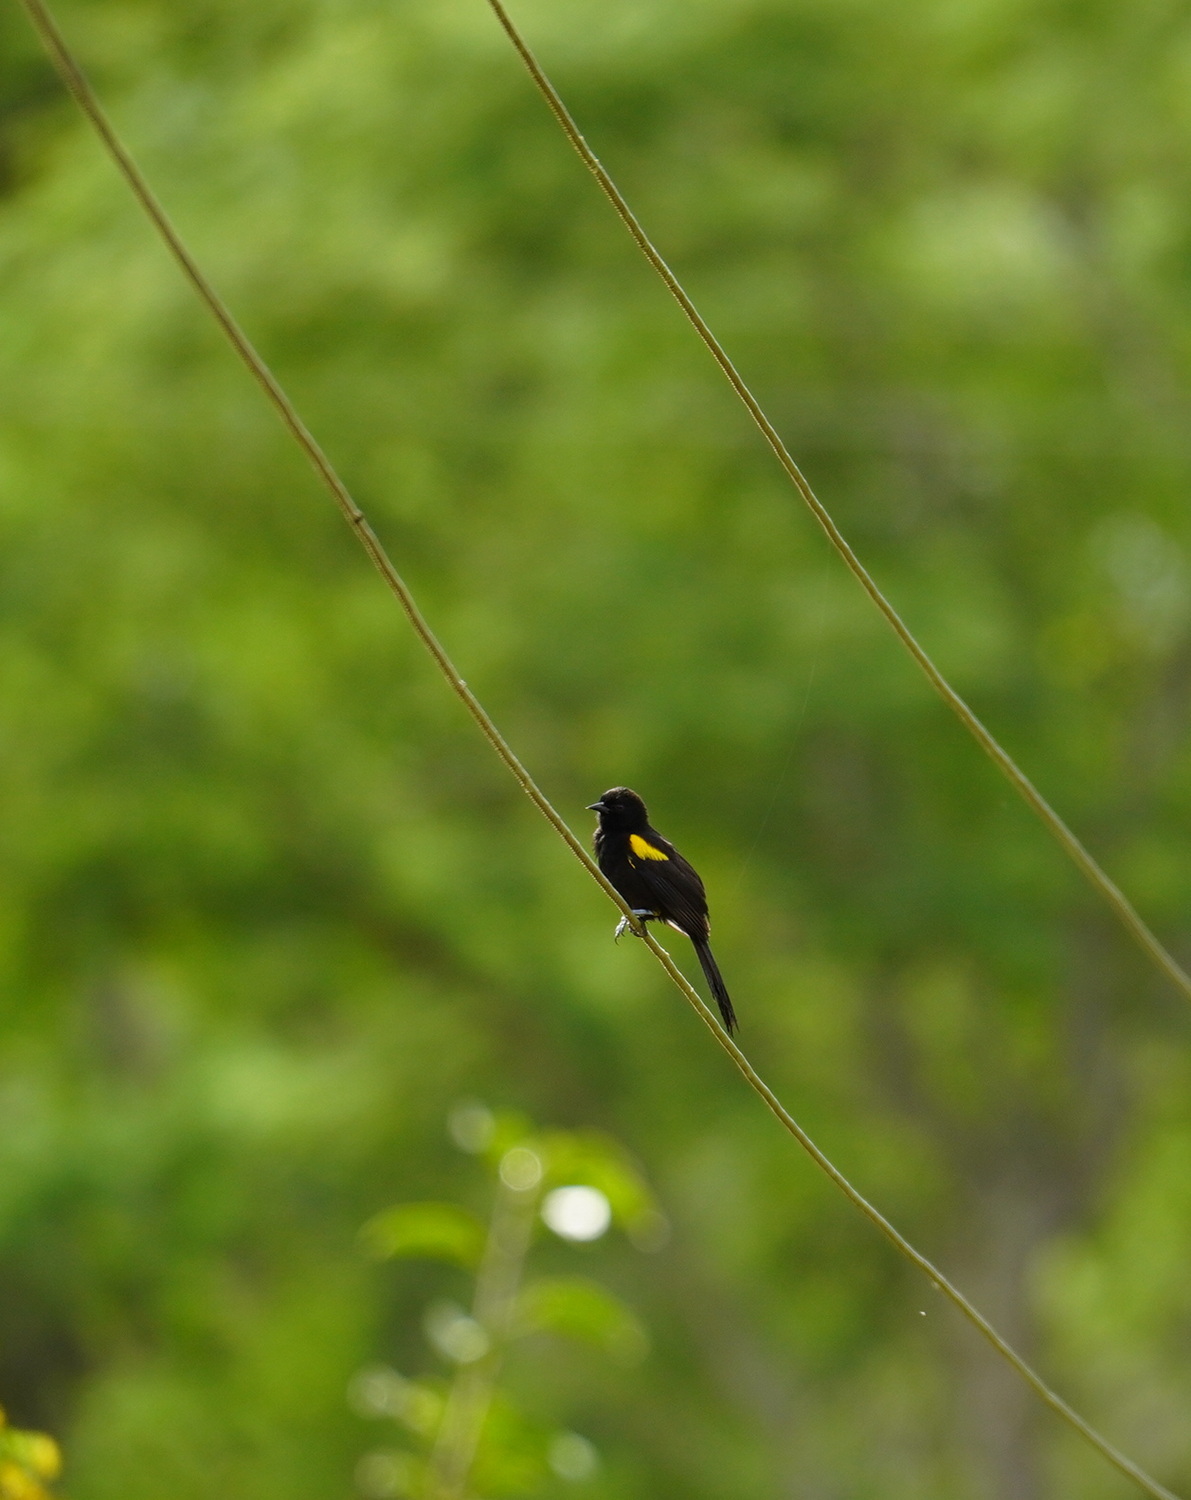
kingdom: Animalia
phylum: Chordata
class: Aves
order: Passeriformes
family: Icteridae
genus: Icterus
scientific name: Icterus cayanensis
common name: Epaulet oriole
